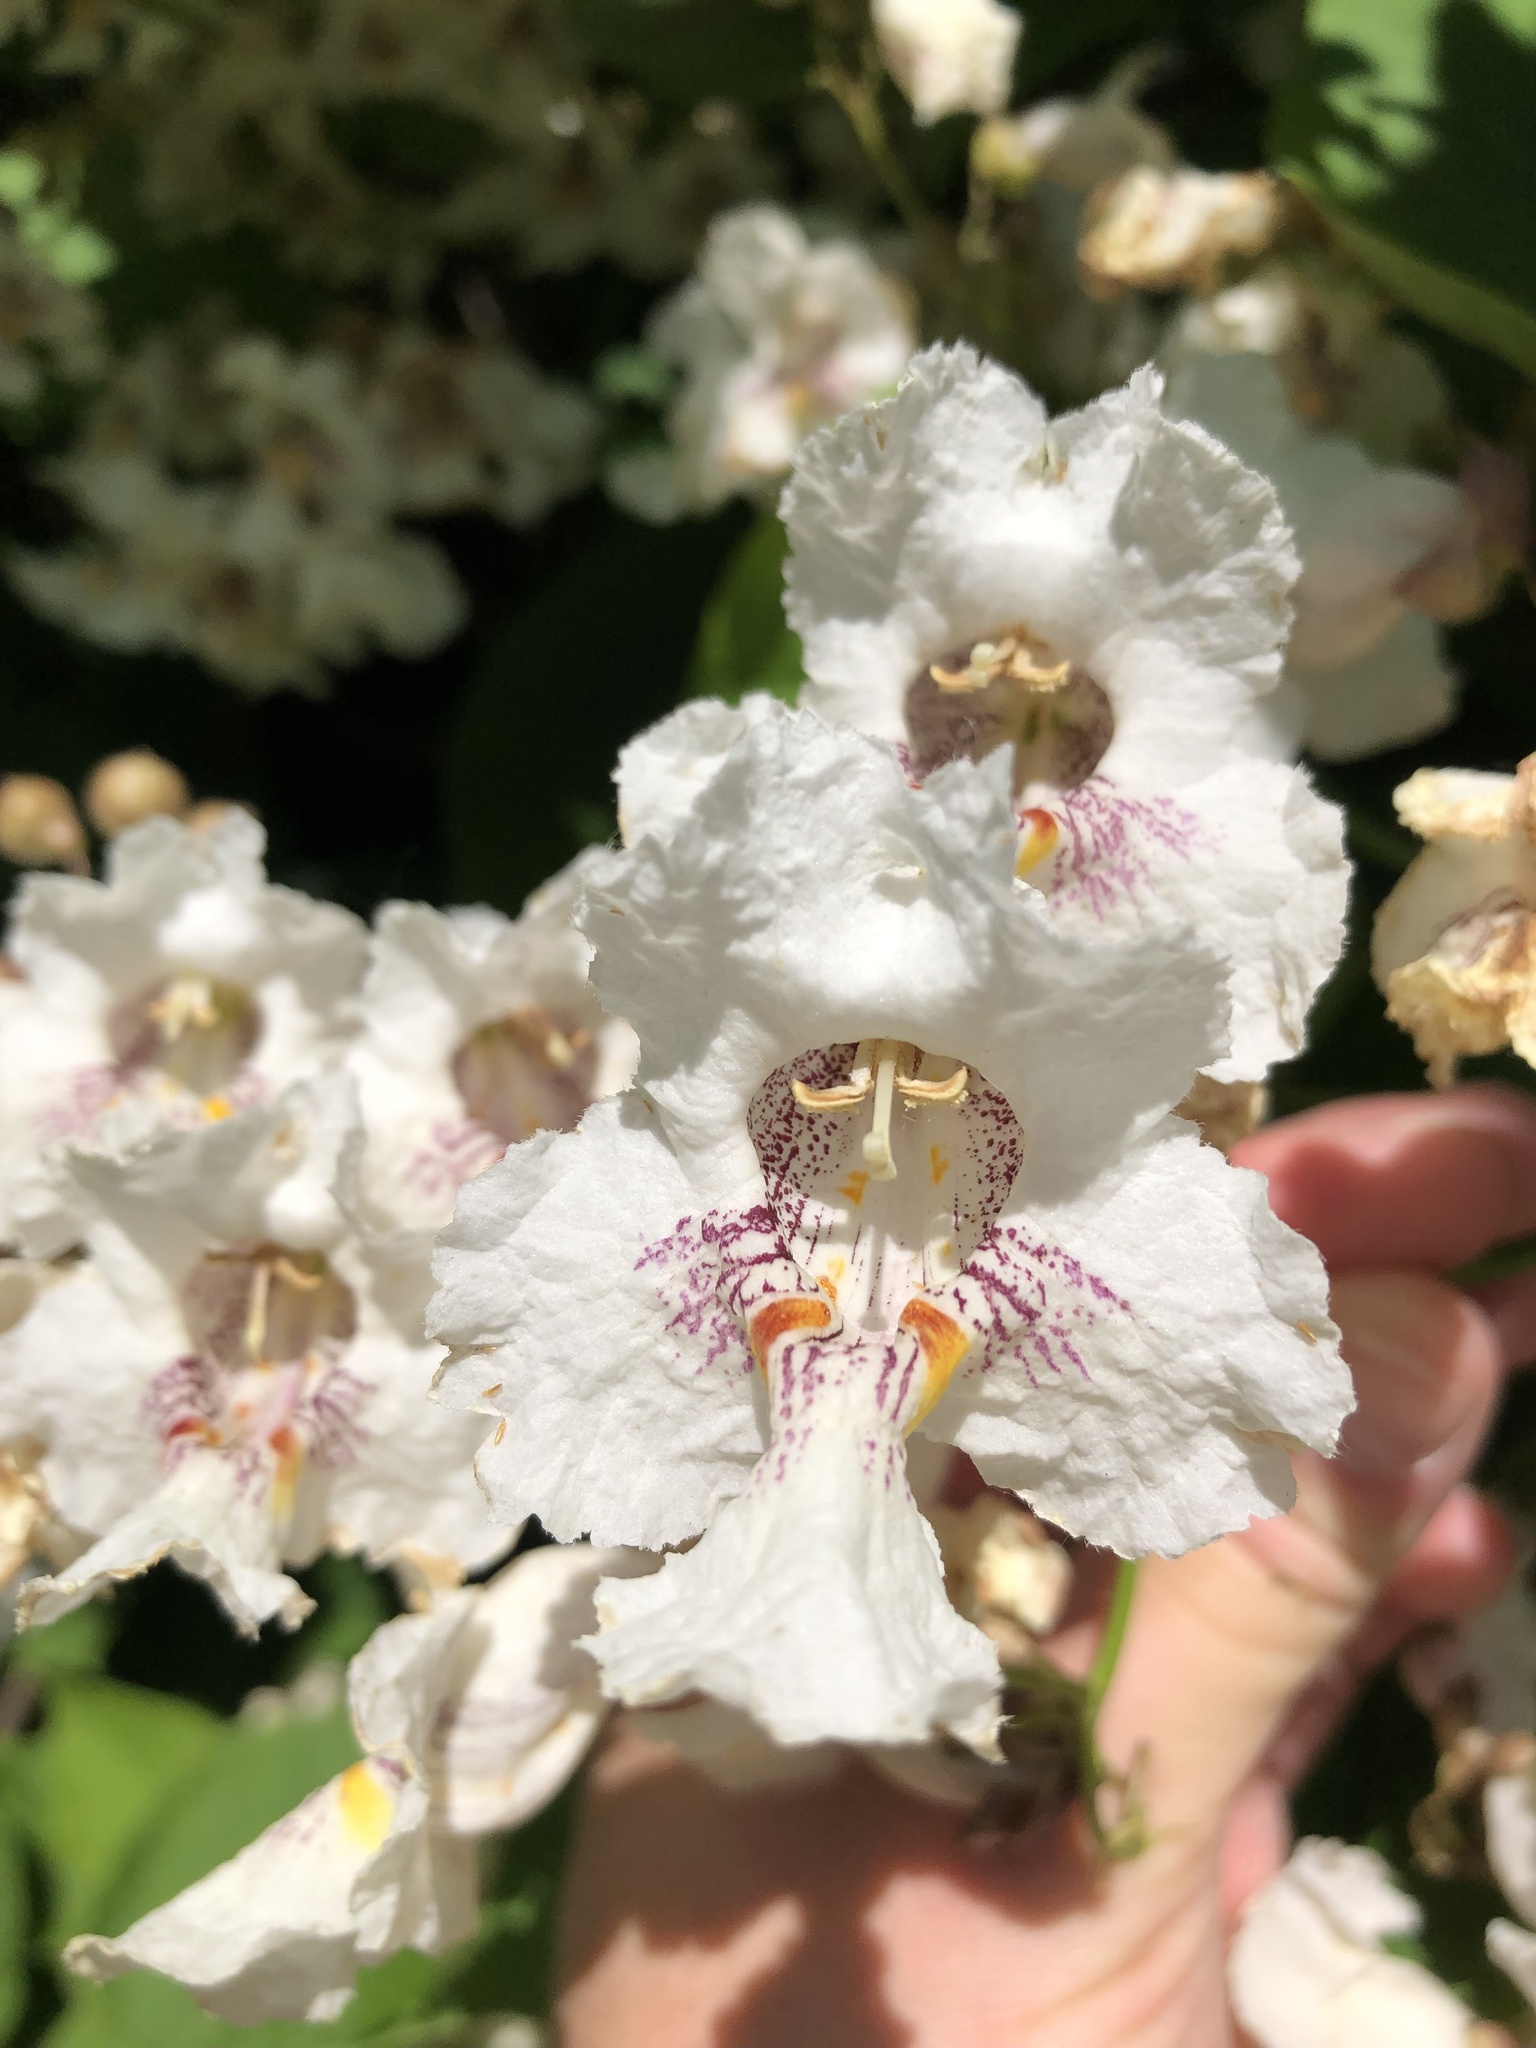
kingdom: Plantae
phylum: Tracheophyta
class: Magnoliopsida
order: Lamiales
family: Bignoniaceae
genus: Catalpa
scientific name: Catalpa speciosa
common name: Northern catalpa
